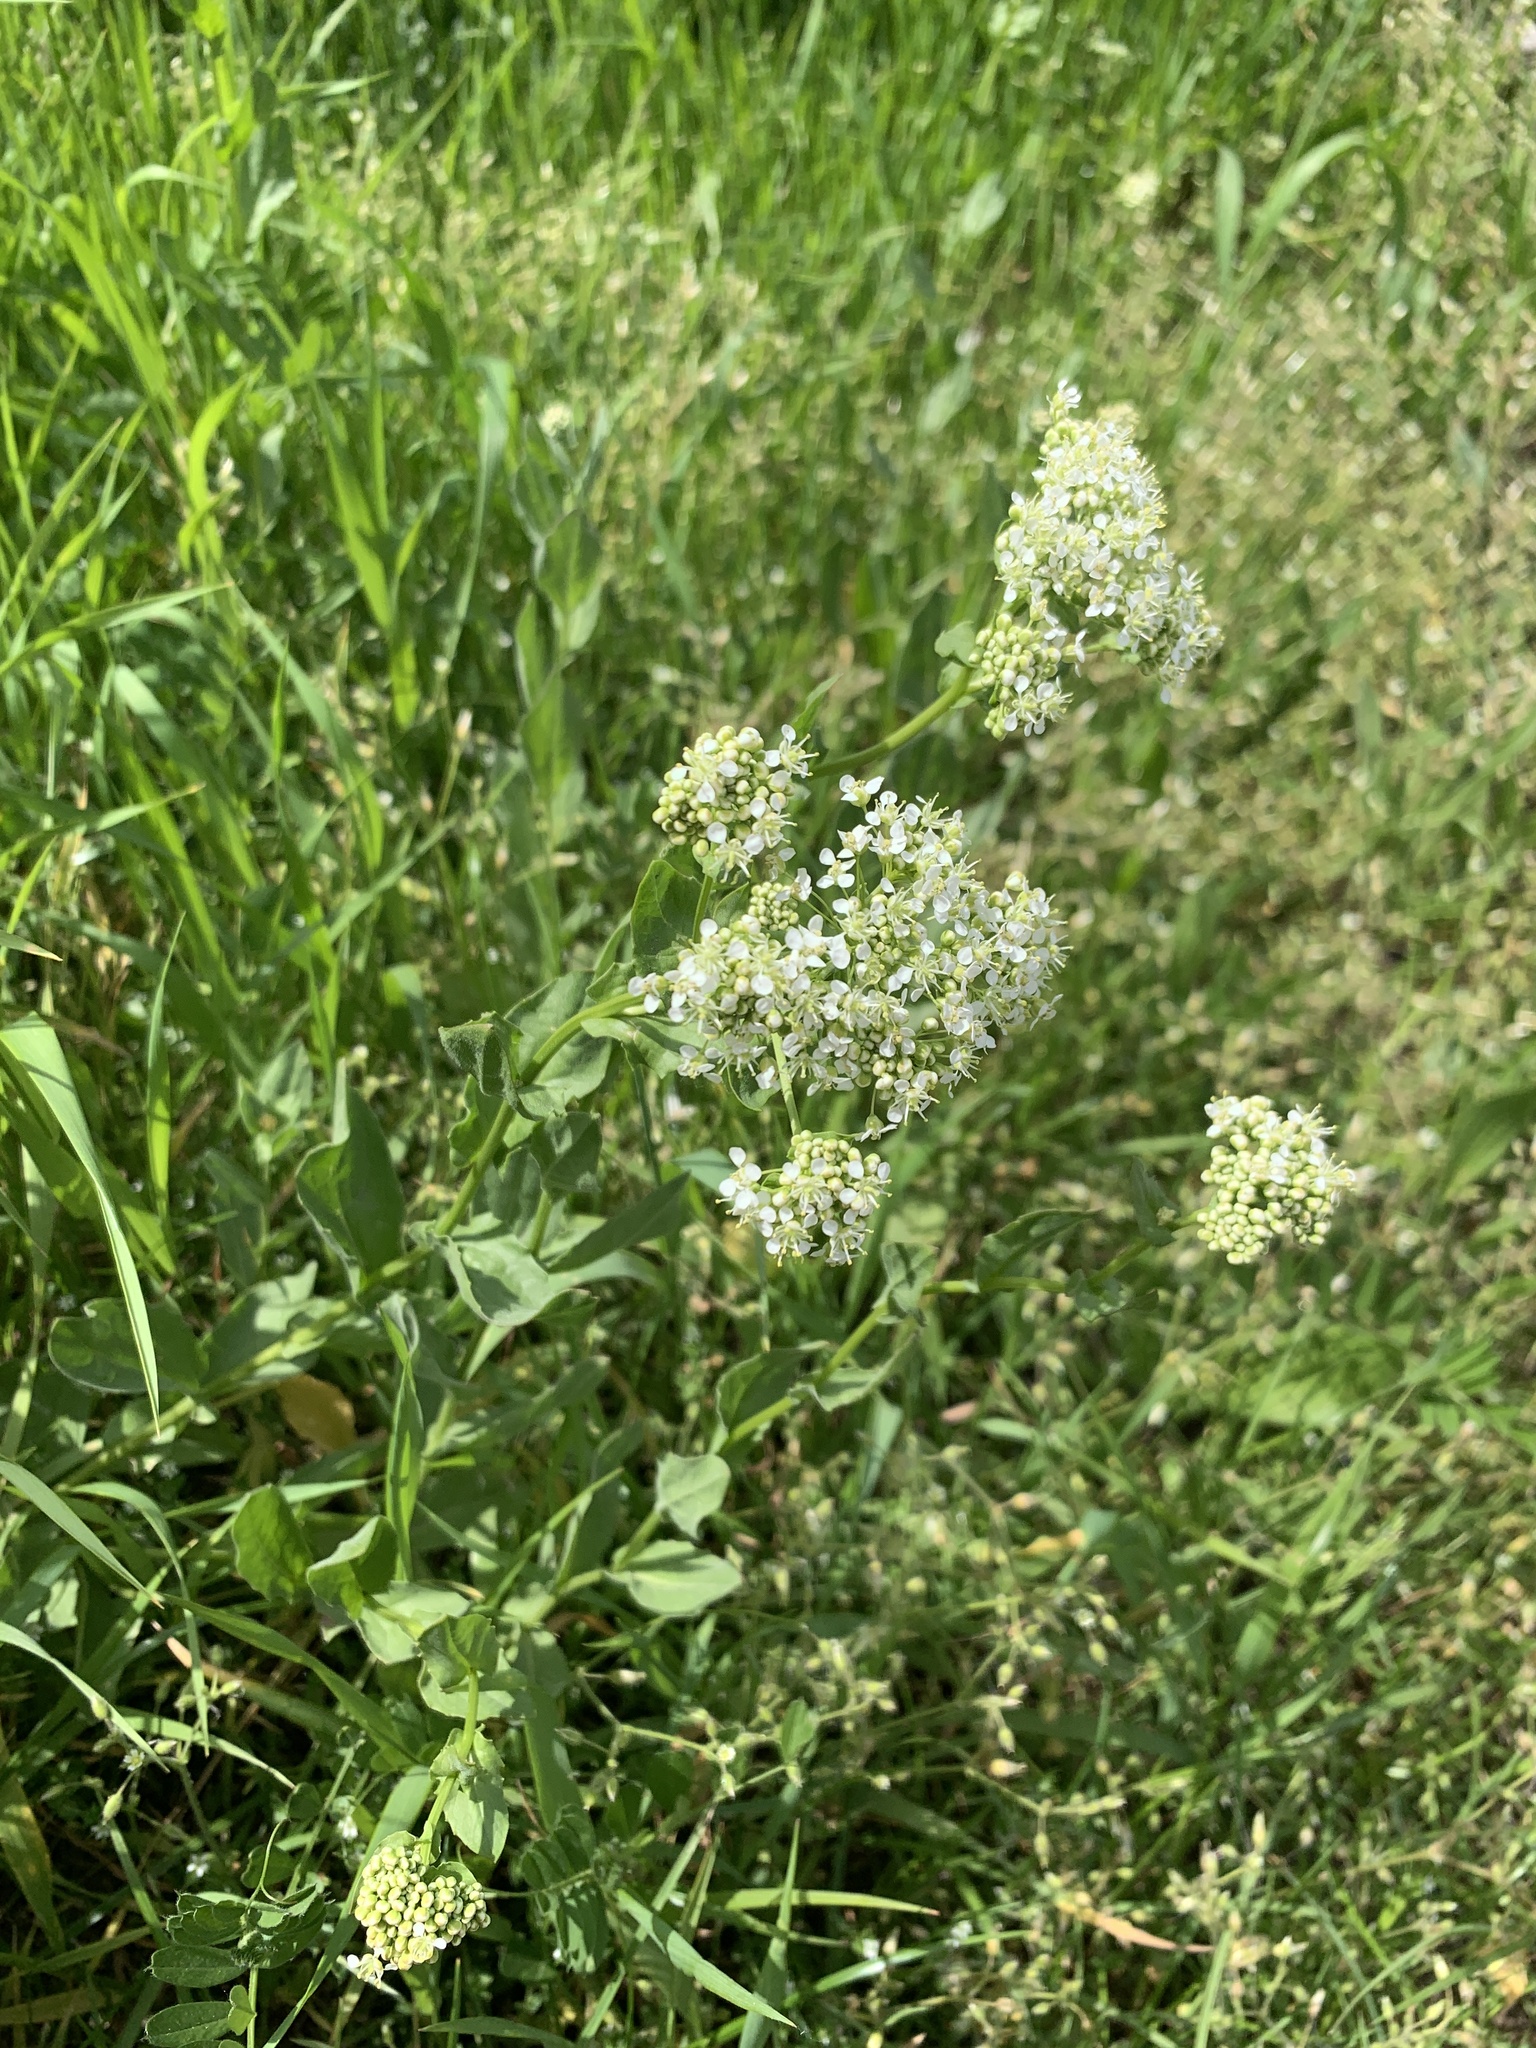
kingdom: Plantae
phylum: Tracheophyta
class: Magnoliopsida
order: Brassicales
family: Brassicaceae
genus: Lepidium
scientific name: Lepidium draba
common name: Hoary cress
